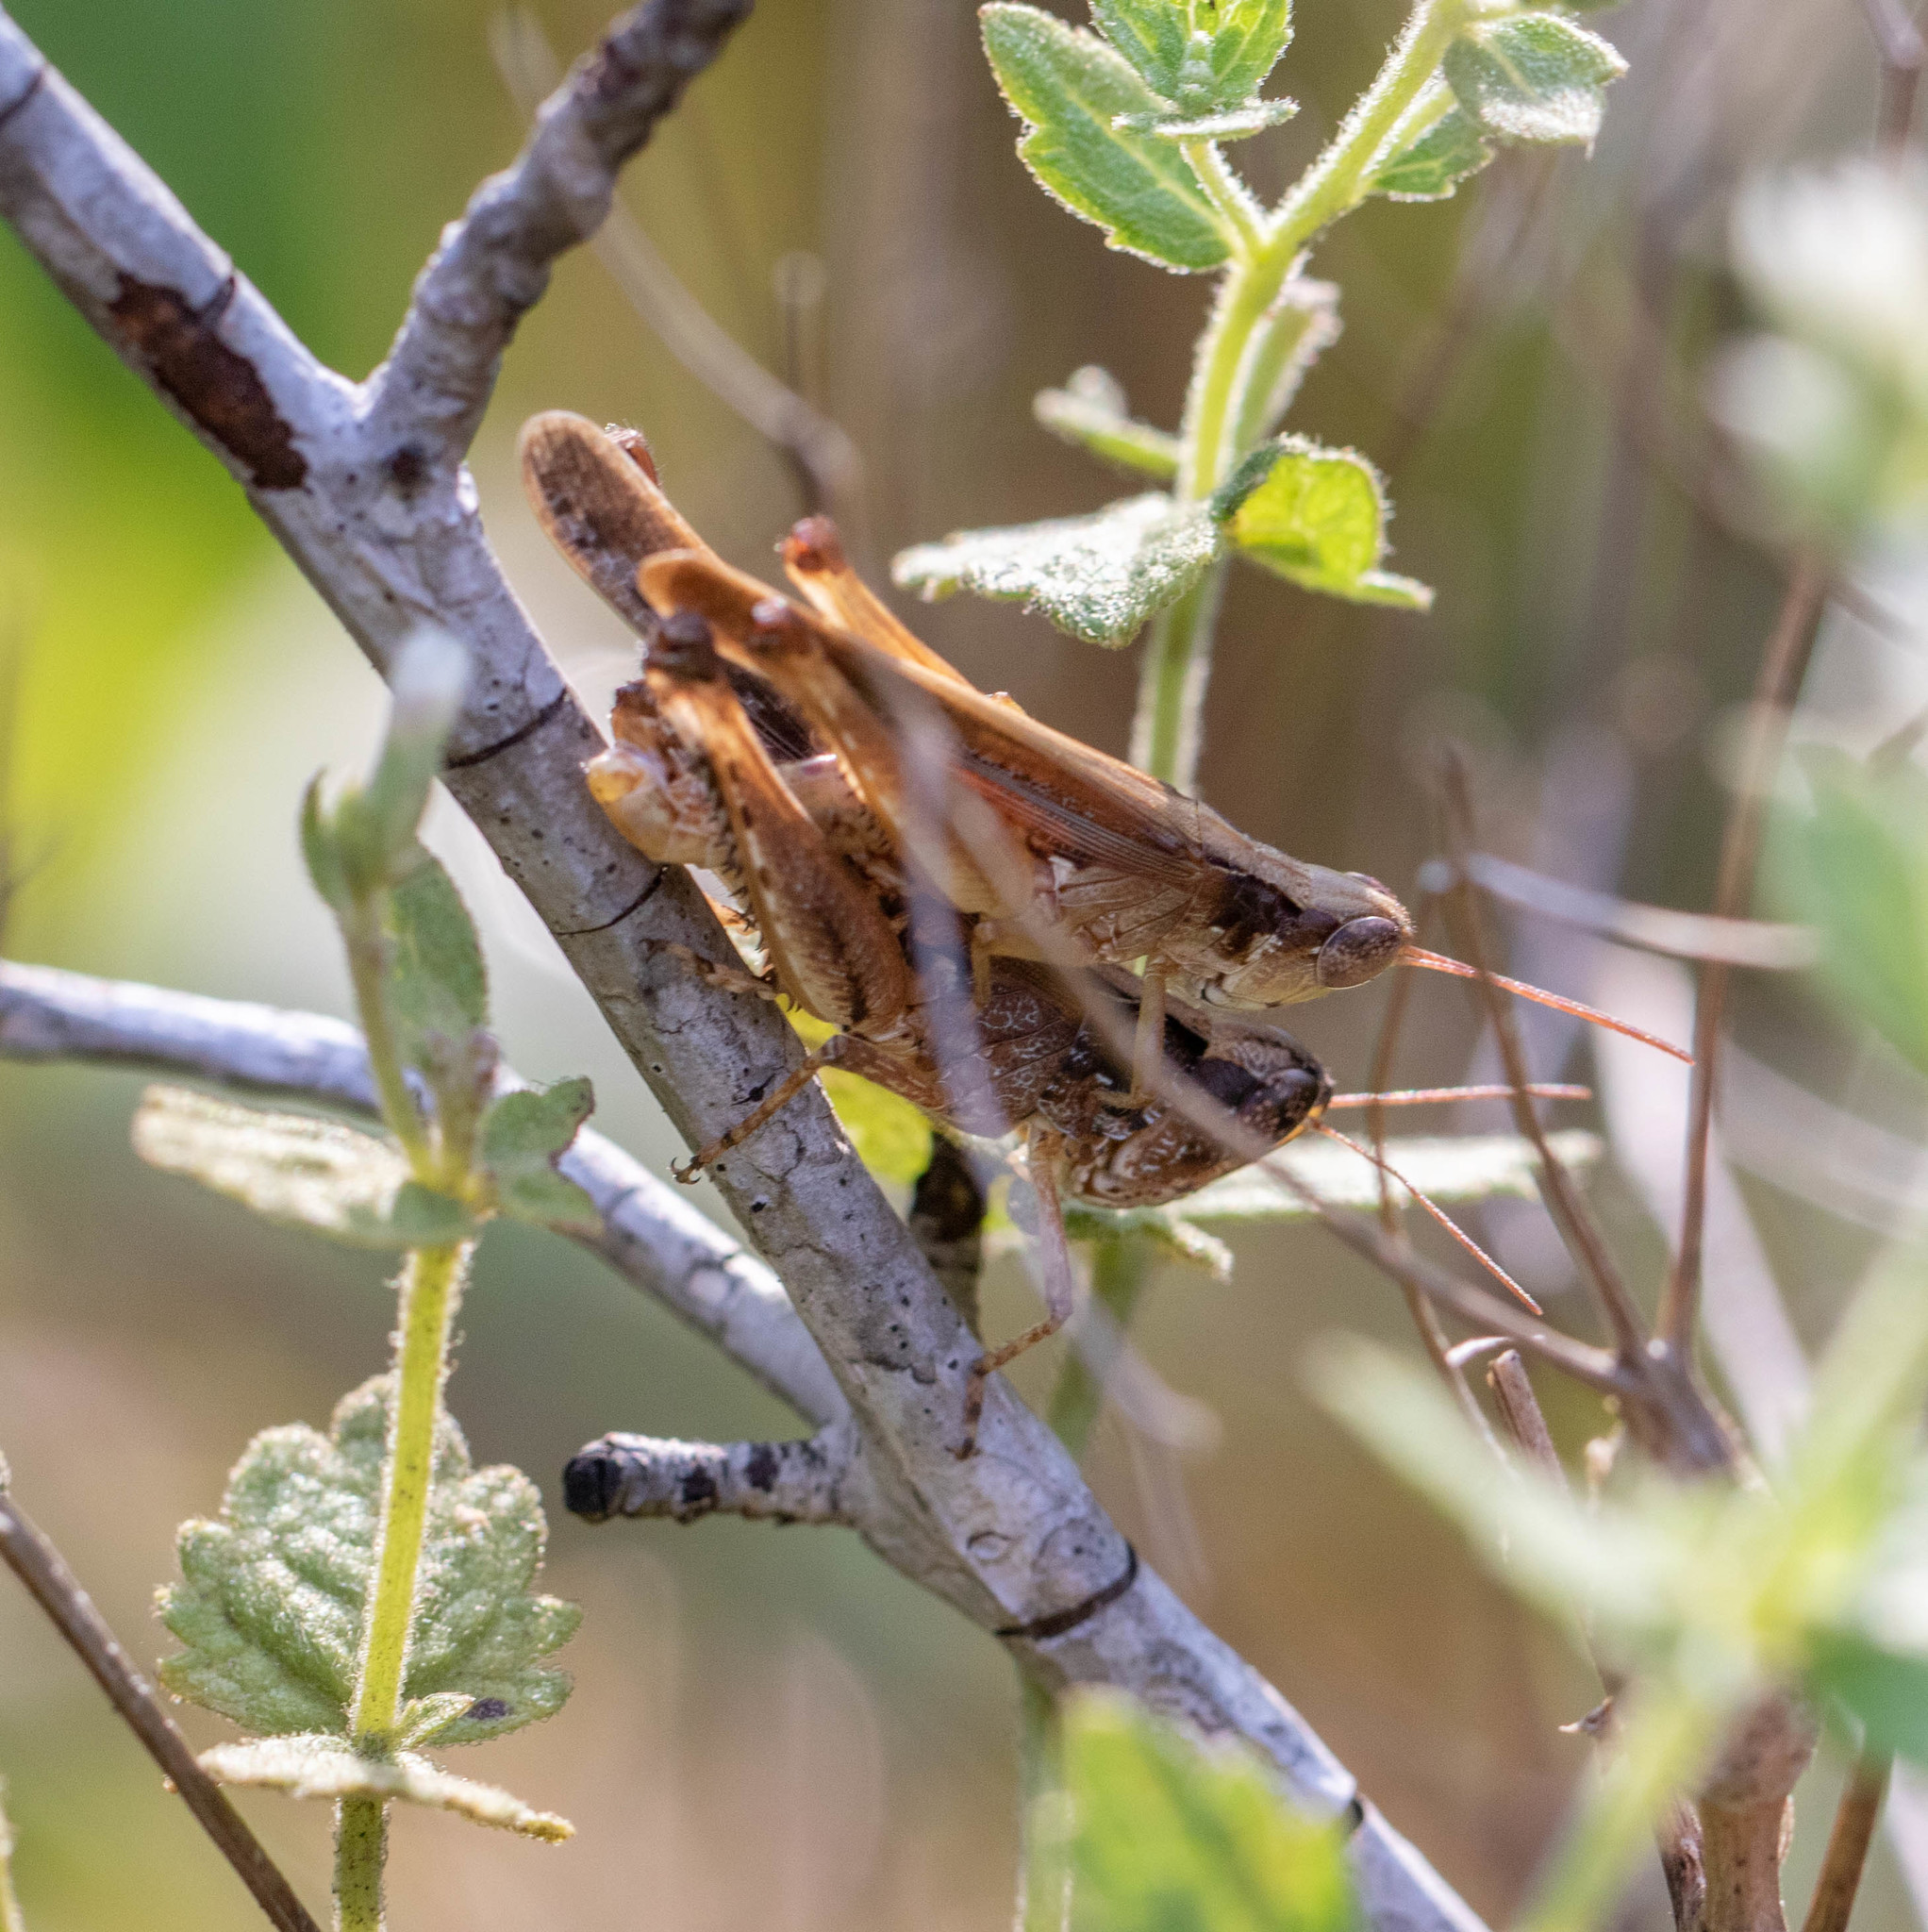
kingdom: Animalia
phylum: Arthropoda
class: Insecta
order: Orthoptera
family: Acrididae
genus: Orphulella
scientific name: Orphulella pelidna
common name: Spotted-wing grasshopper
